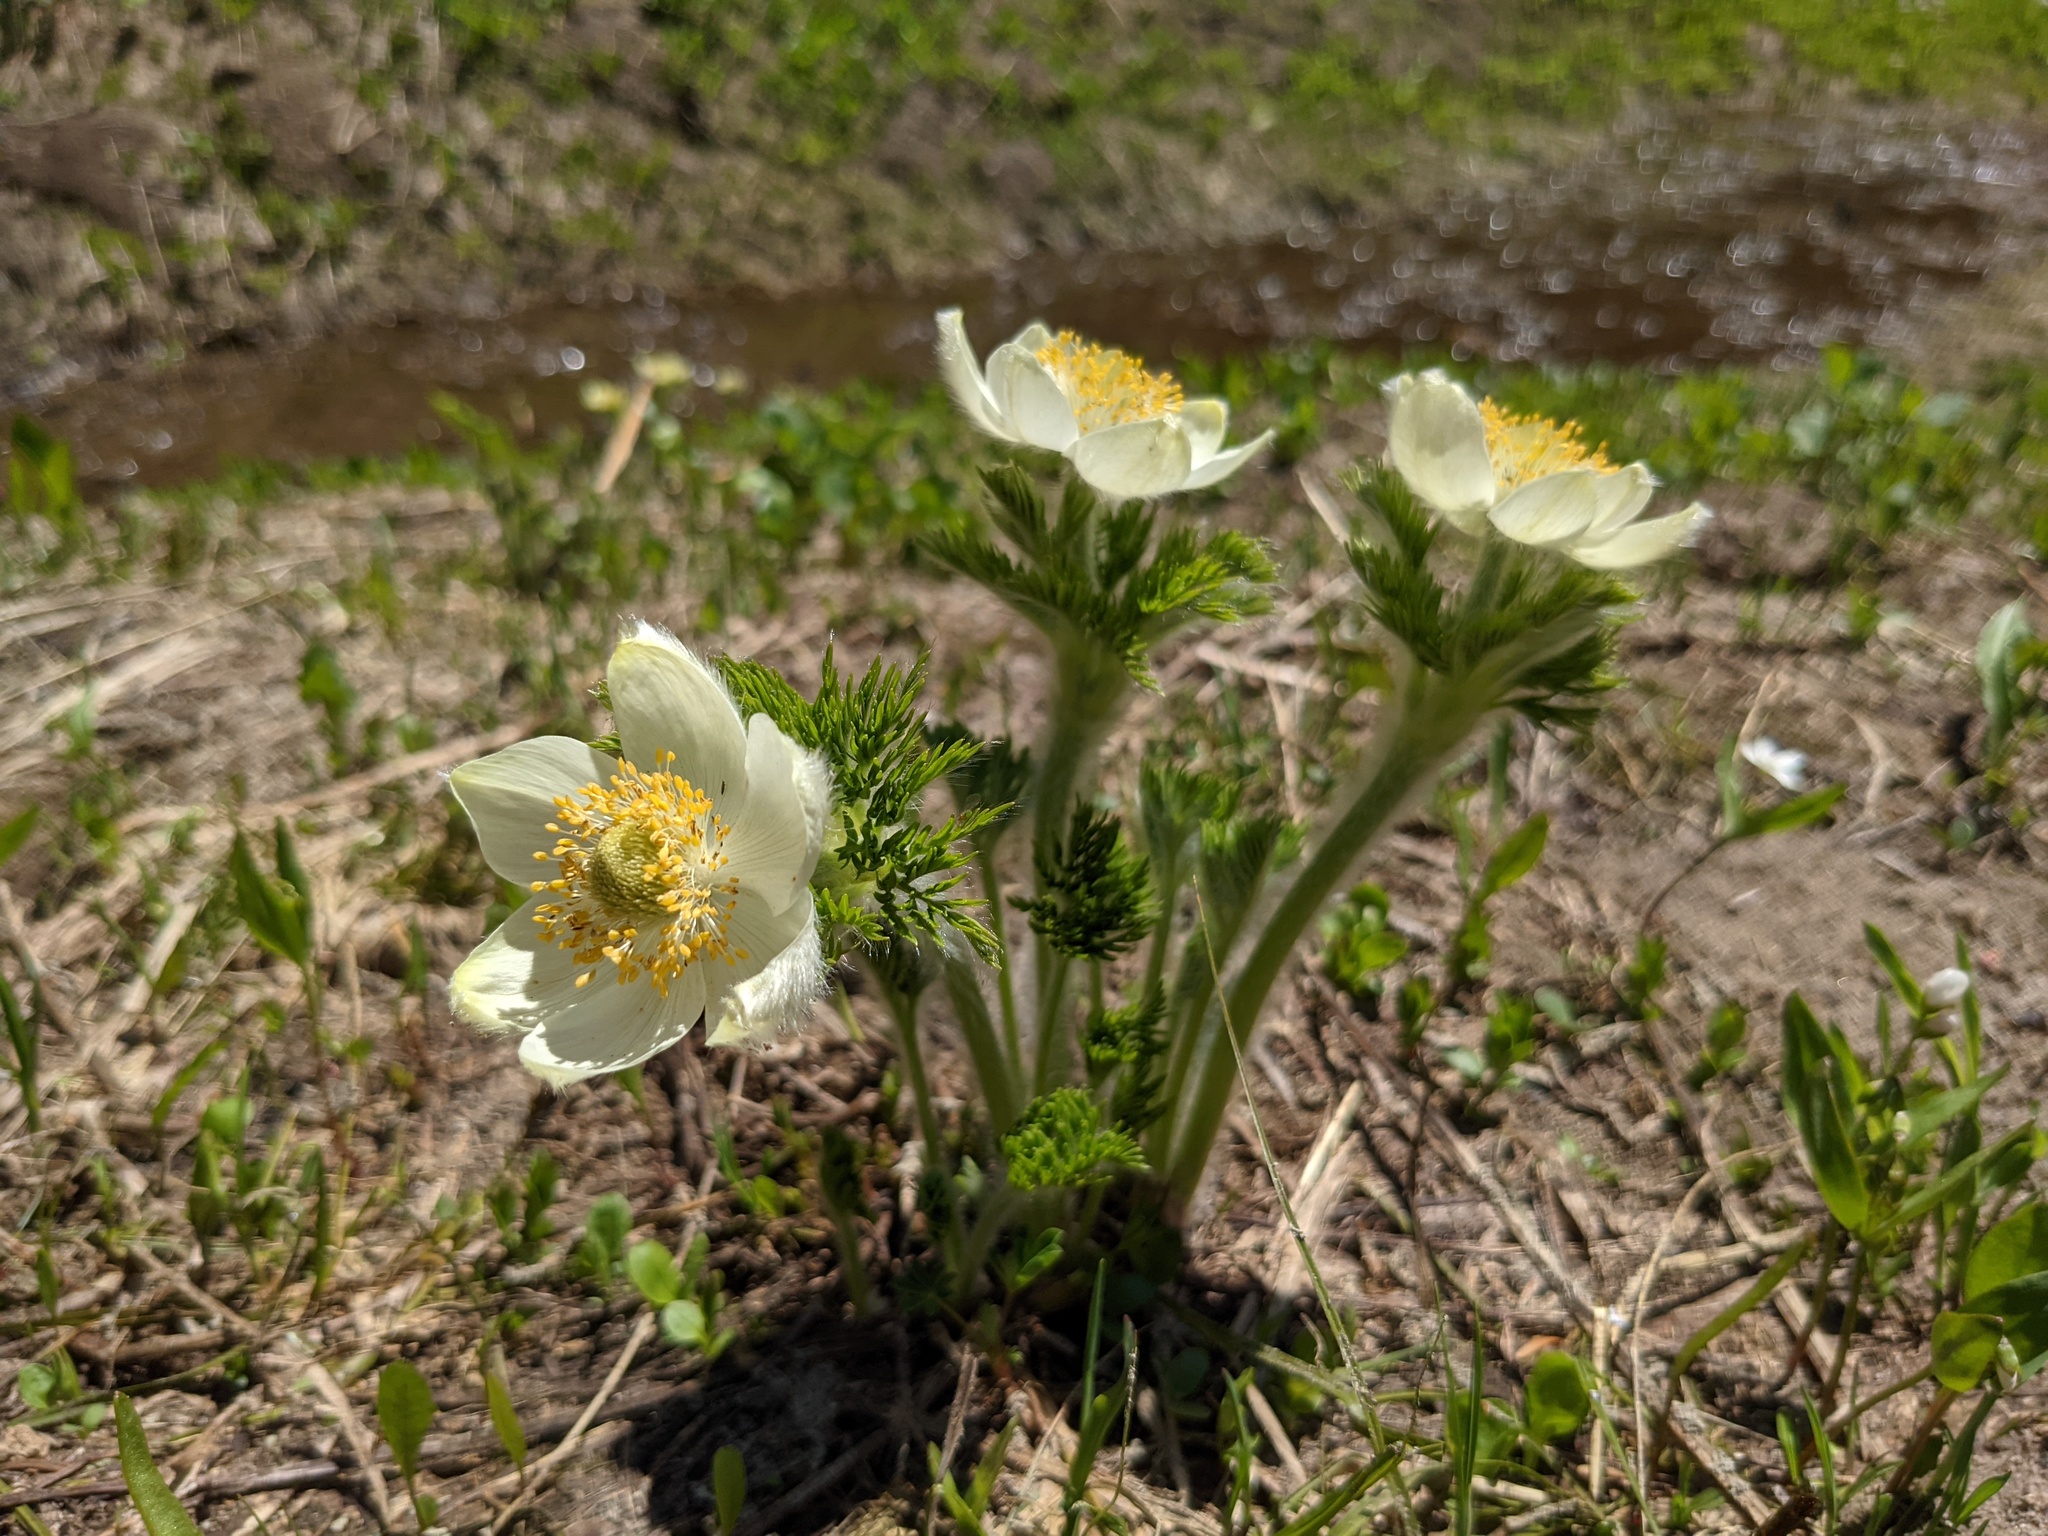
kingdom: Plantae
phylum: Tracheophyta
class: Magnoliopsida
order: Ranunculales
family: Ranunculaceae
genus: Pulsatilla
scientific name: Pulsatilla occidentalis
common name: Mountain pasqueflower
